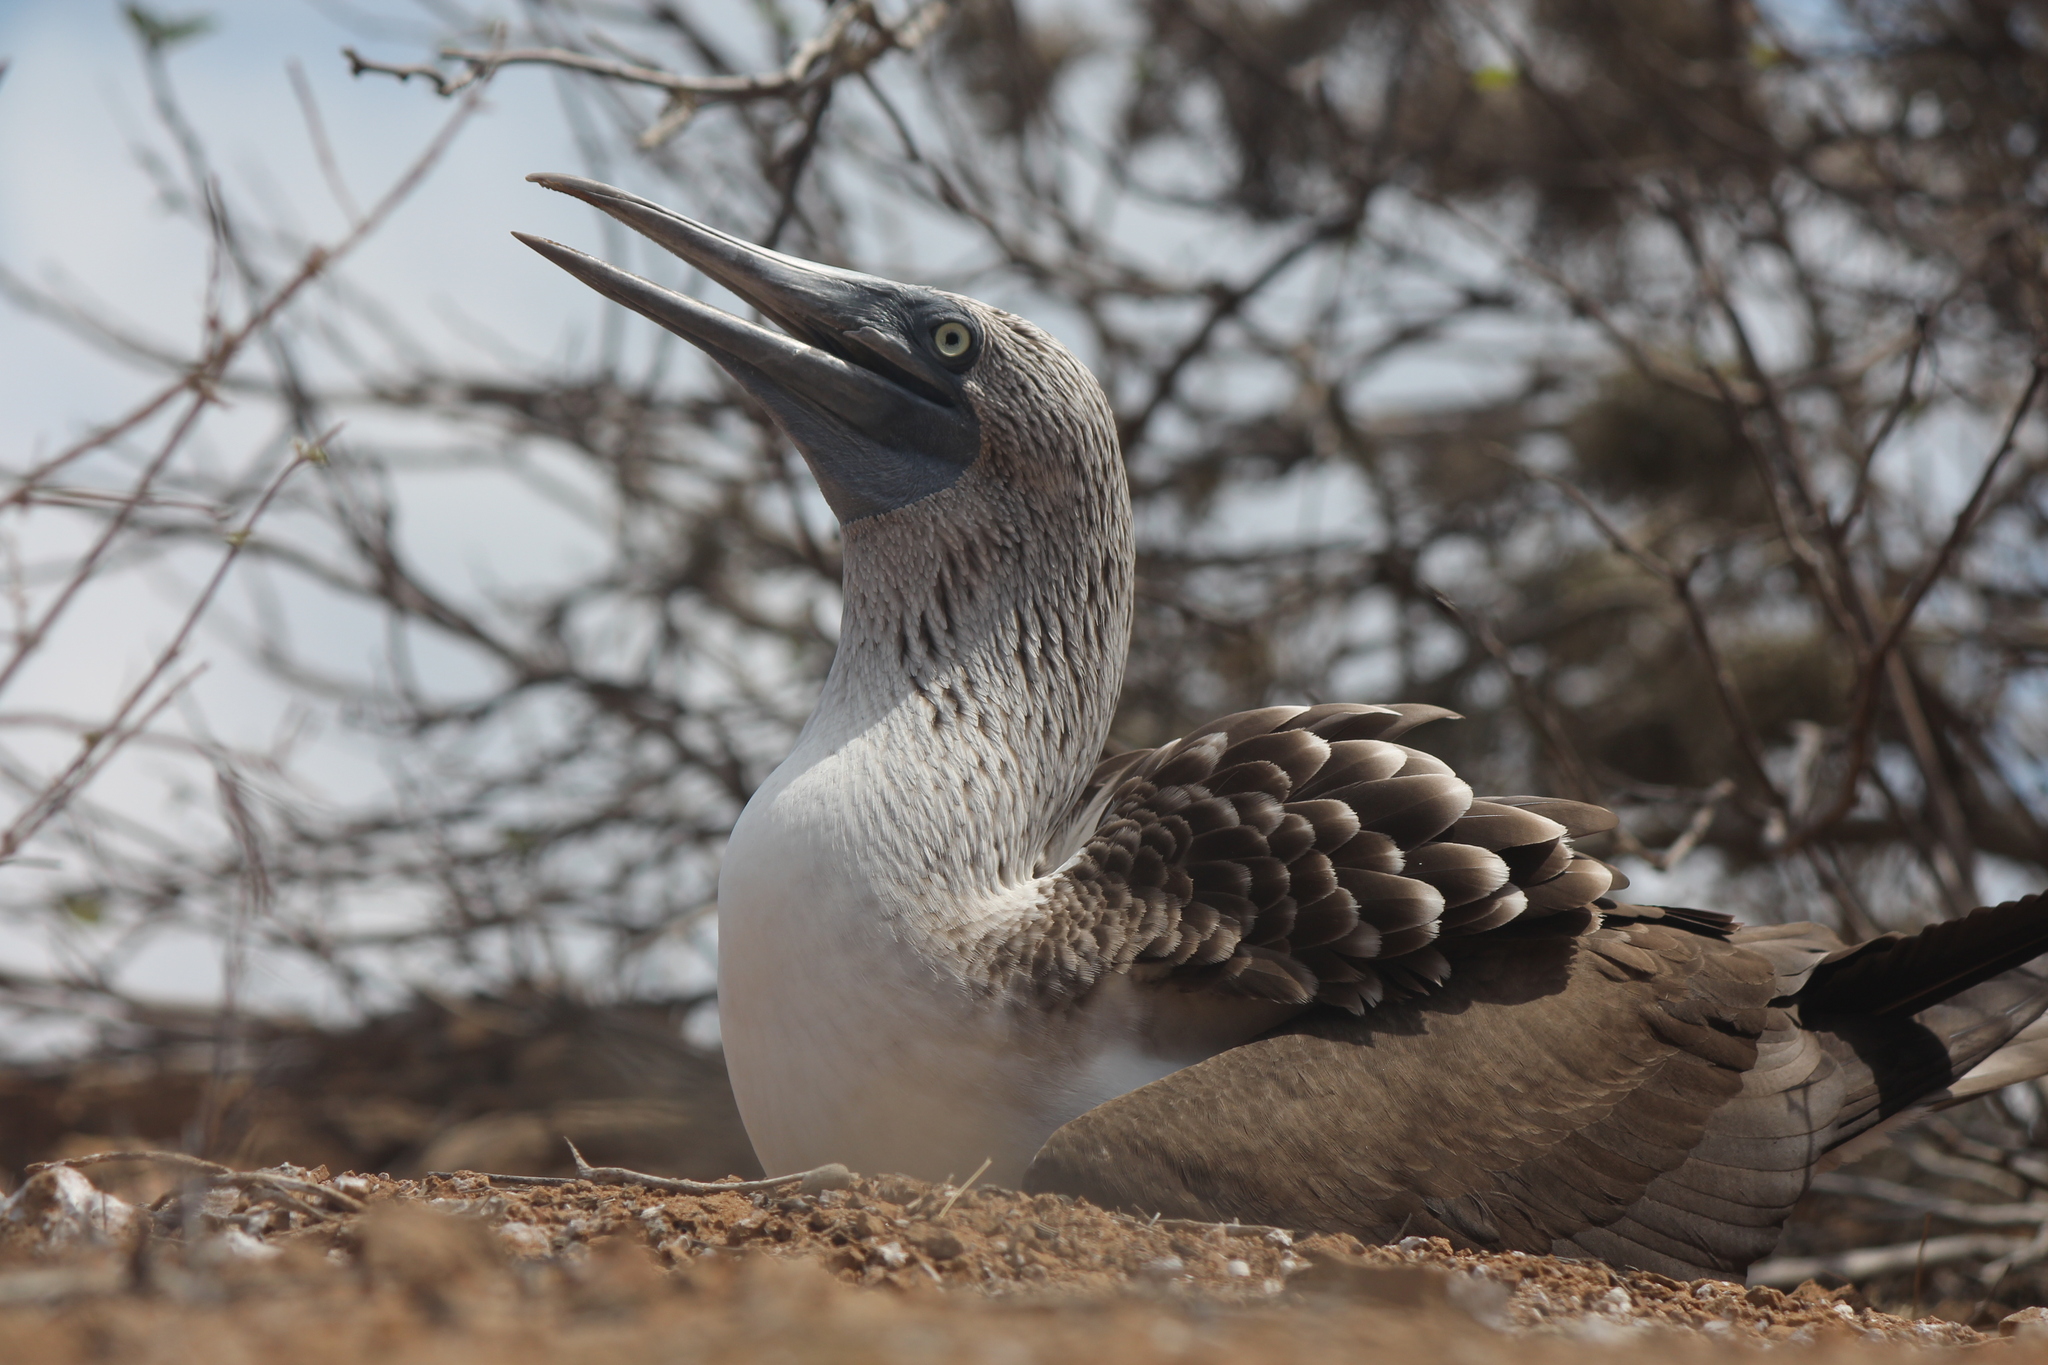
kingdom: Animalia
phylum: Chordata
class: Aves
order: Suliformes
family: Sulidae
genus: Sula
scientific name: Sula nebouxii
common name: Blue-footed booby
